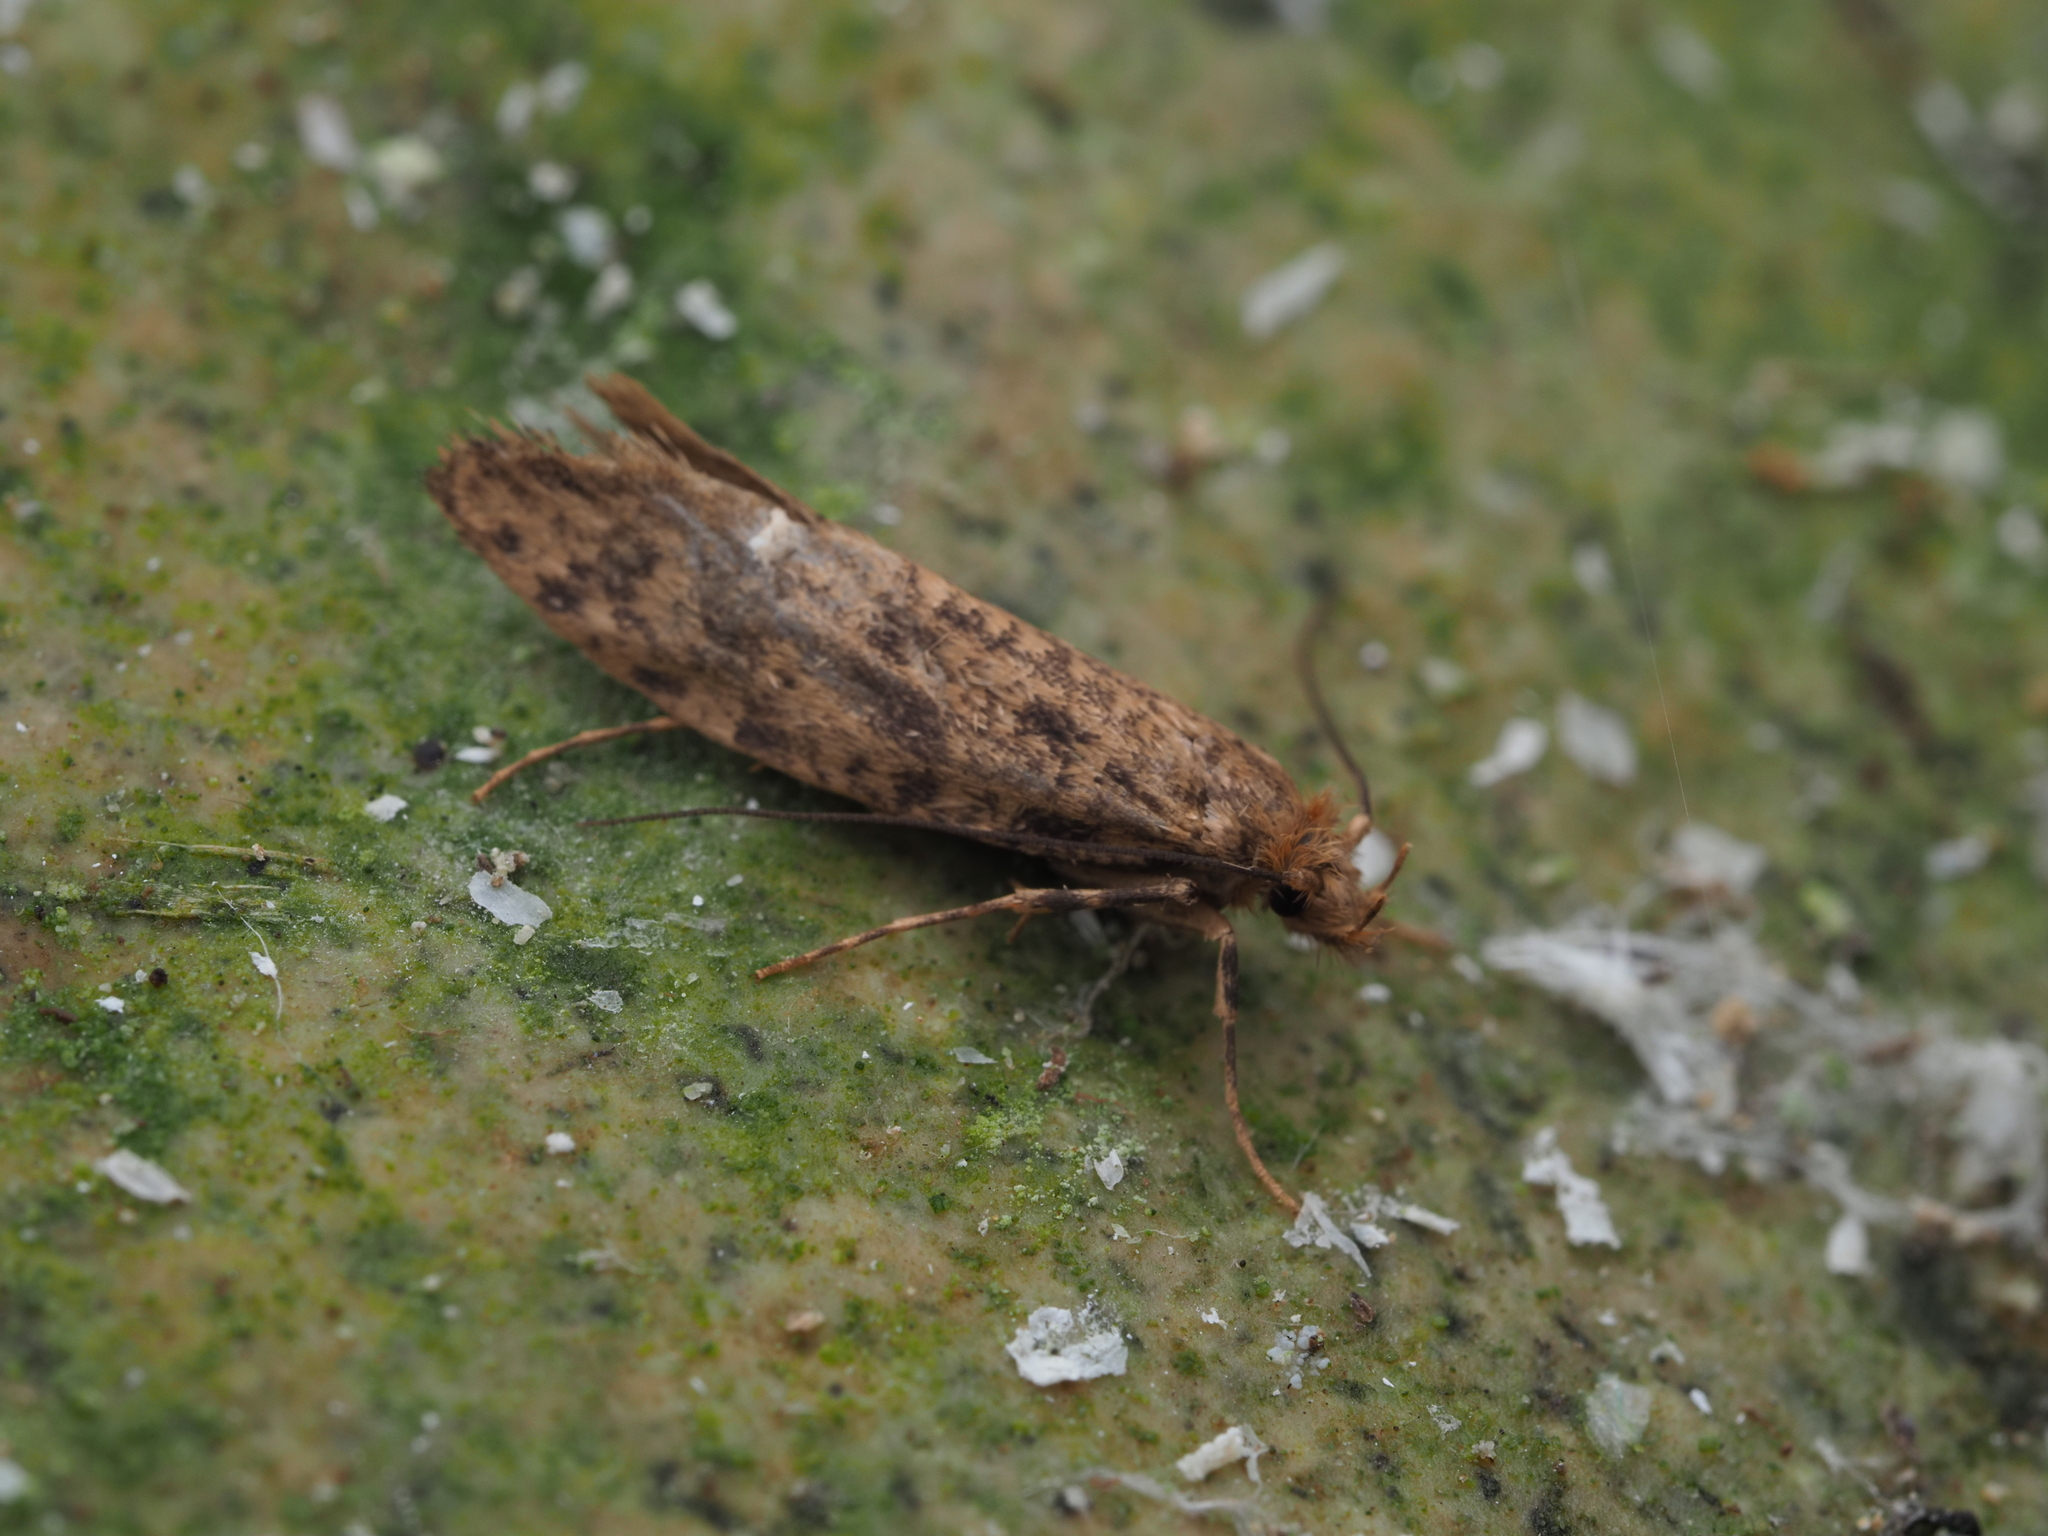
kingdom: Animalia
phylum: Arthropoda
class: Insecta
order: Lepidoptera
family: Tineidae
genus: Archyala
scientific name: Archyala terranea
